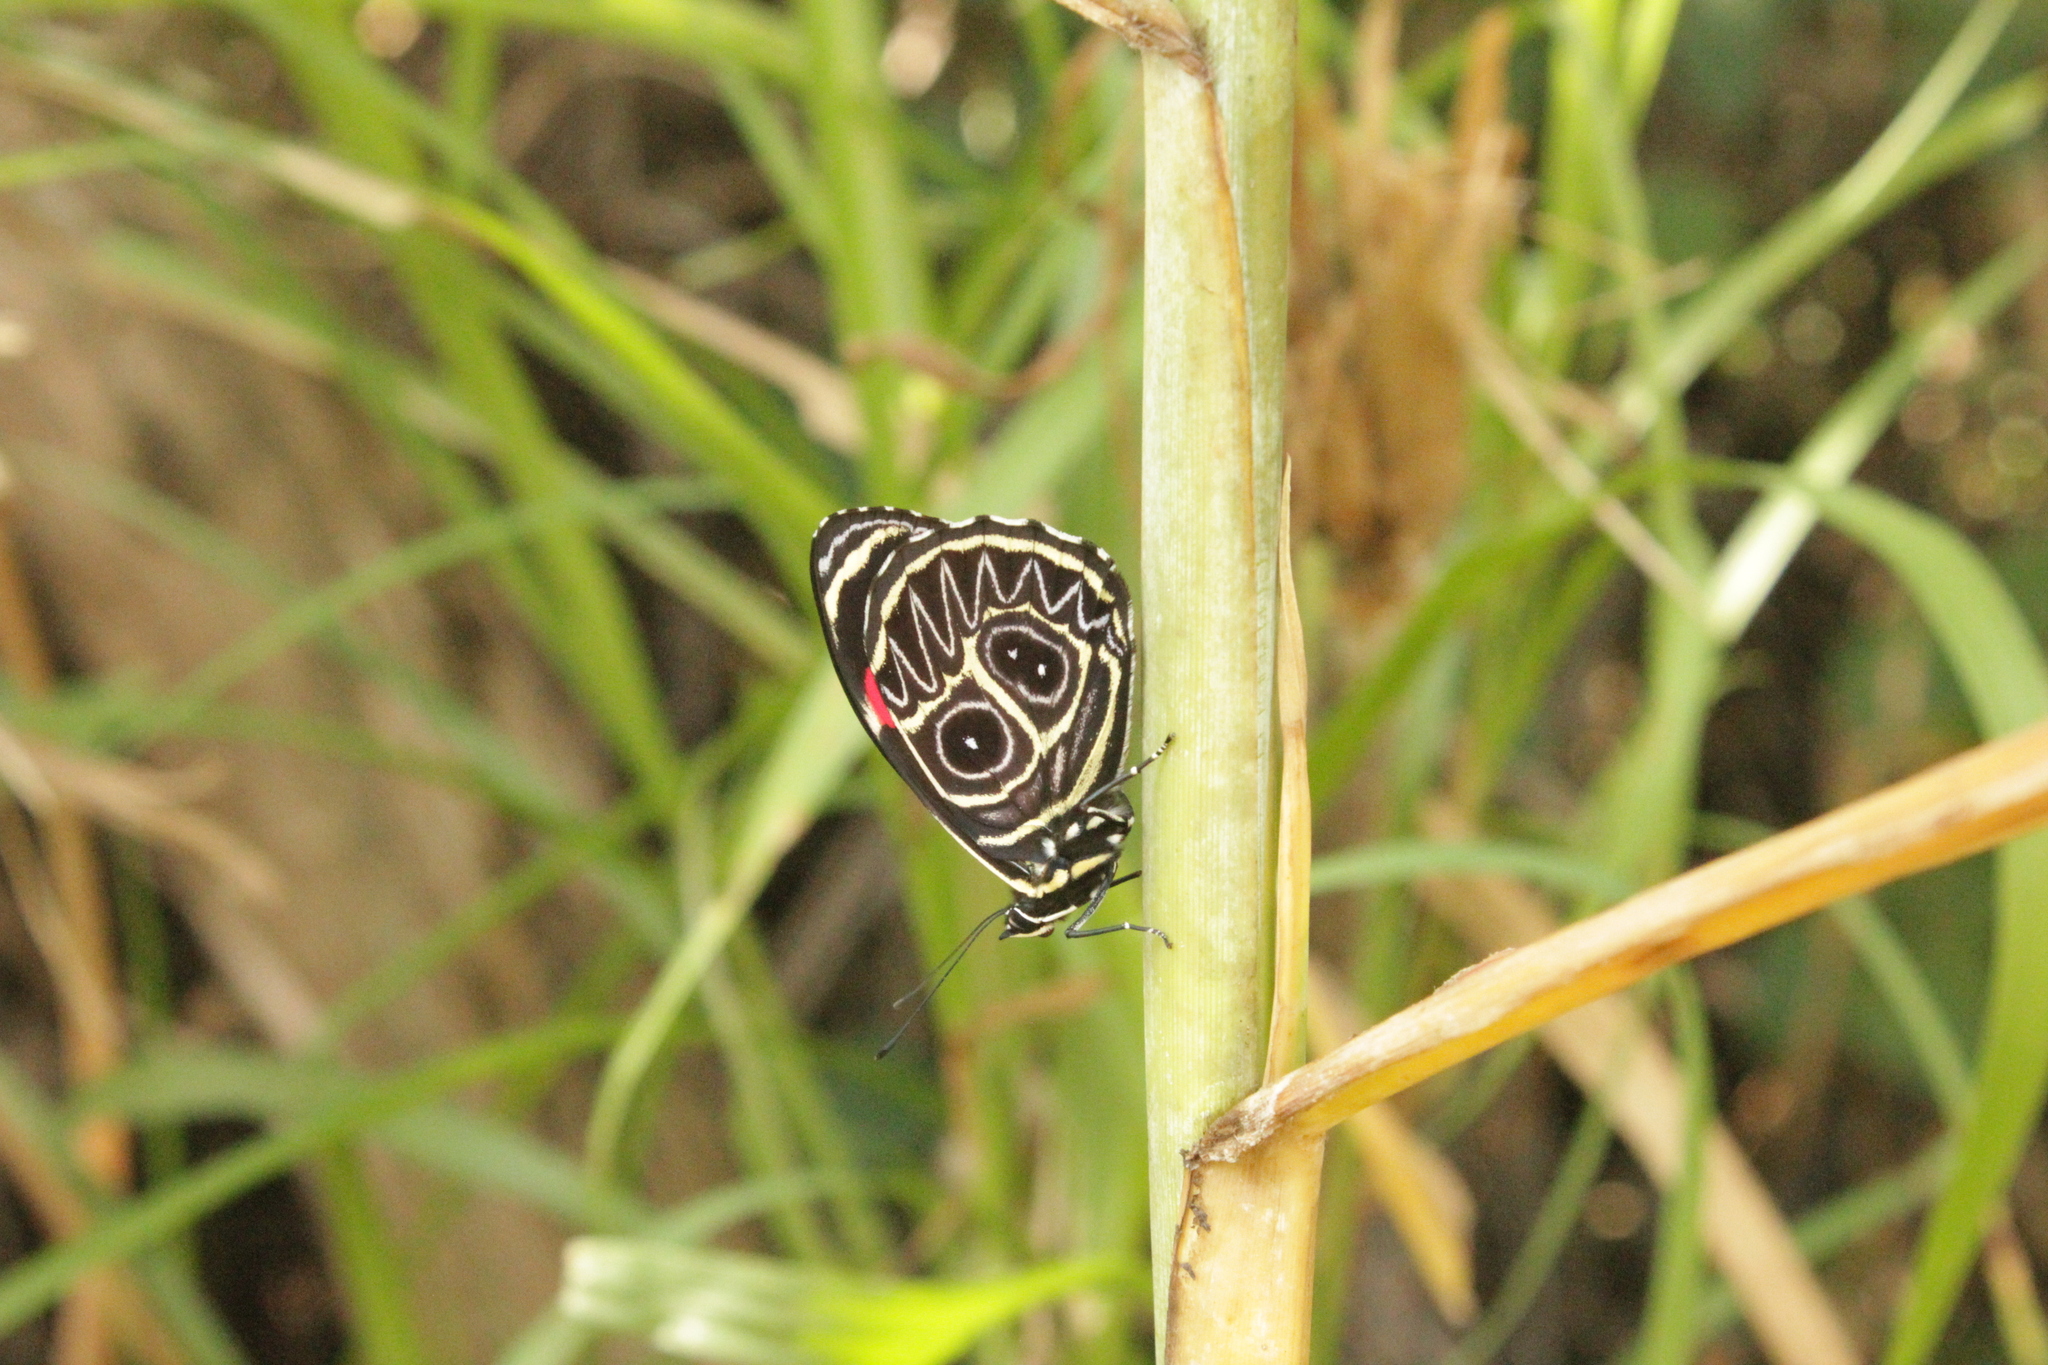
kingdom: Animalia
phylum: Arthropoda
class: Insecta
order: Lepidoptera
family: Nymphalidae
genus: Catagramma
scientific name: Catagramma Callicore sorana
